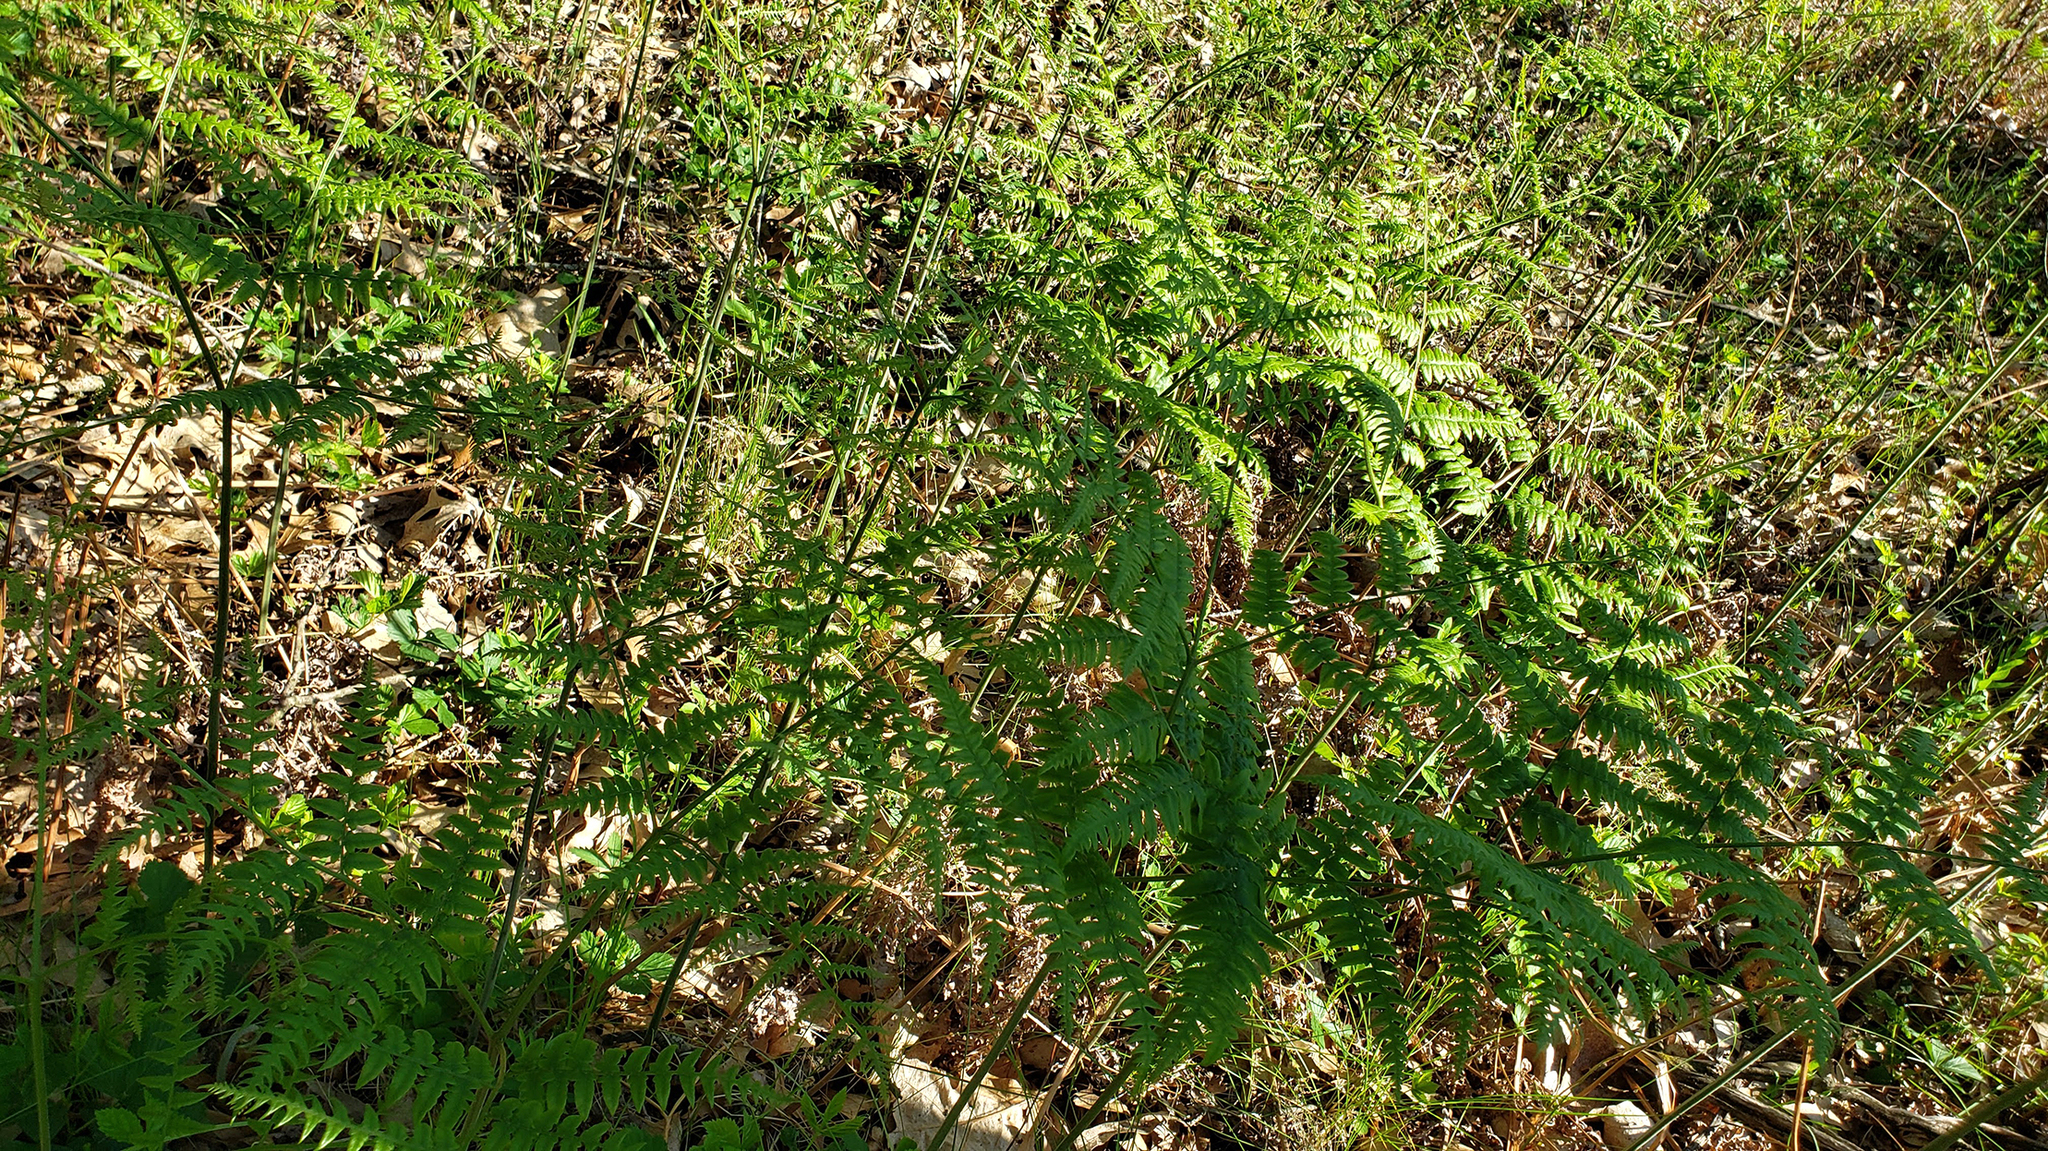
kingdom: Plantae
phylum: Tracheophyta
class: Polypodiopsida
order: Polypodiales
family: Dennstaedtiaceae
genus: Pteridium
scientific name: Pteridium aquilinum
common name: Bracken
